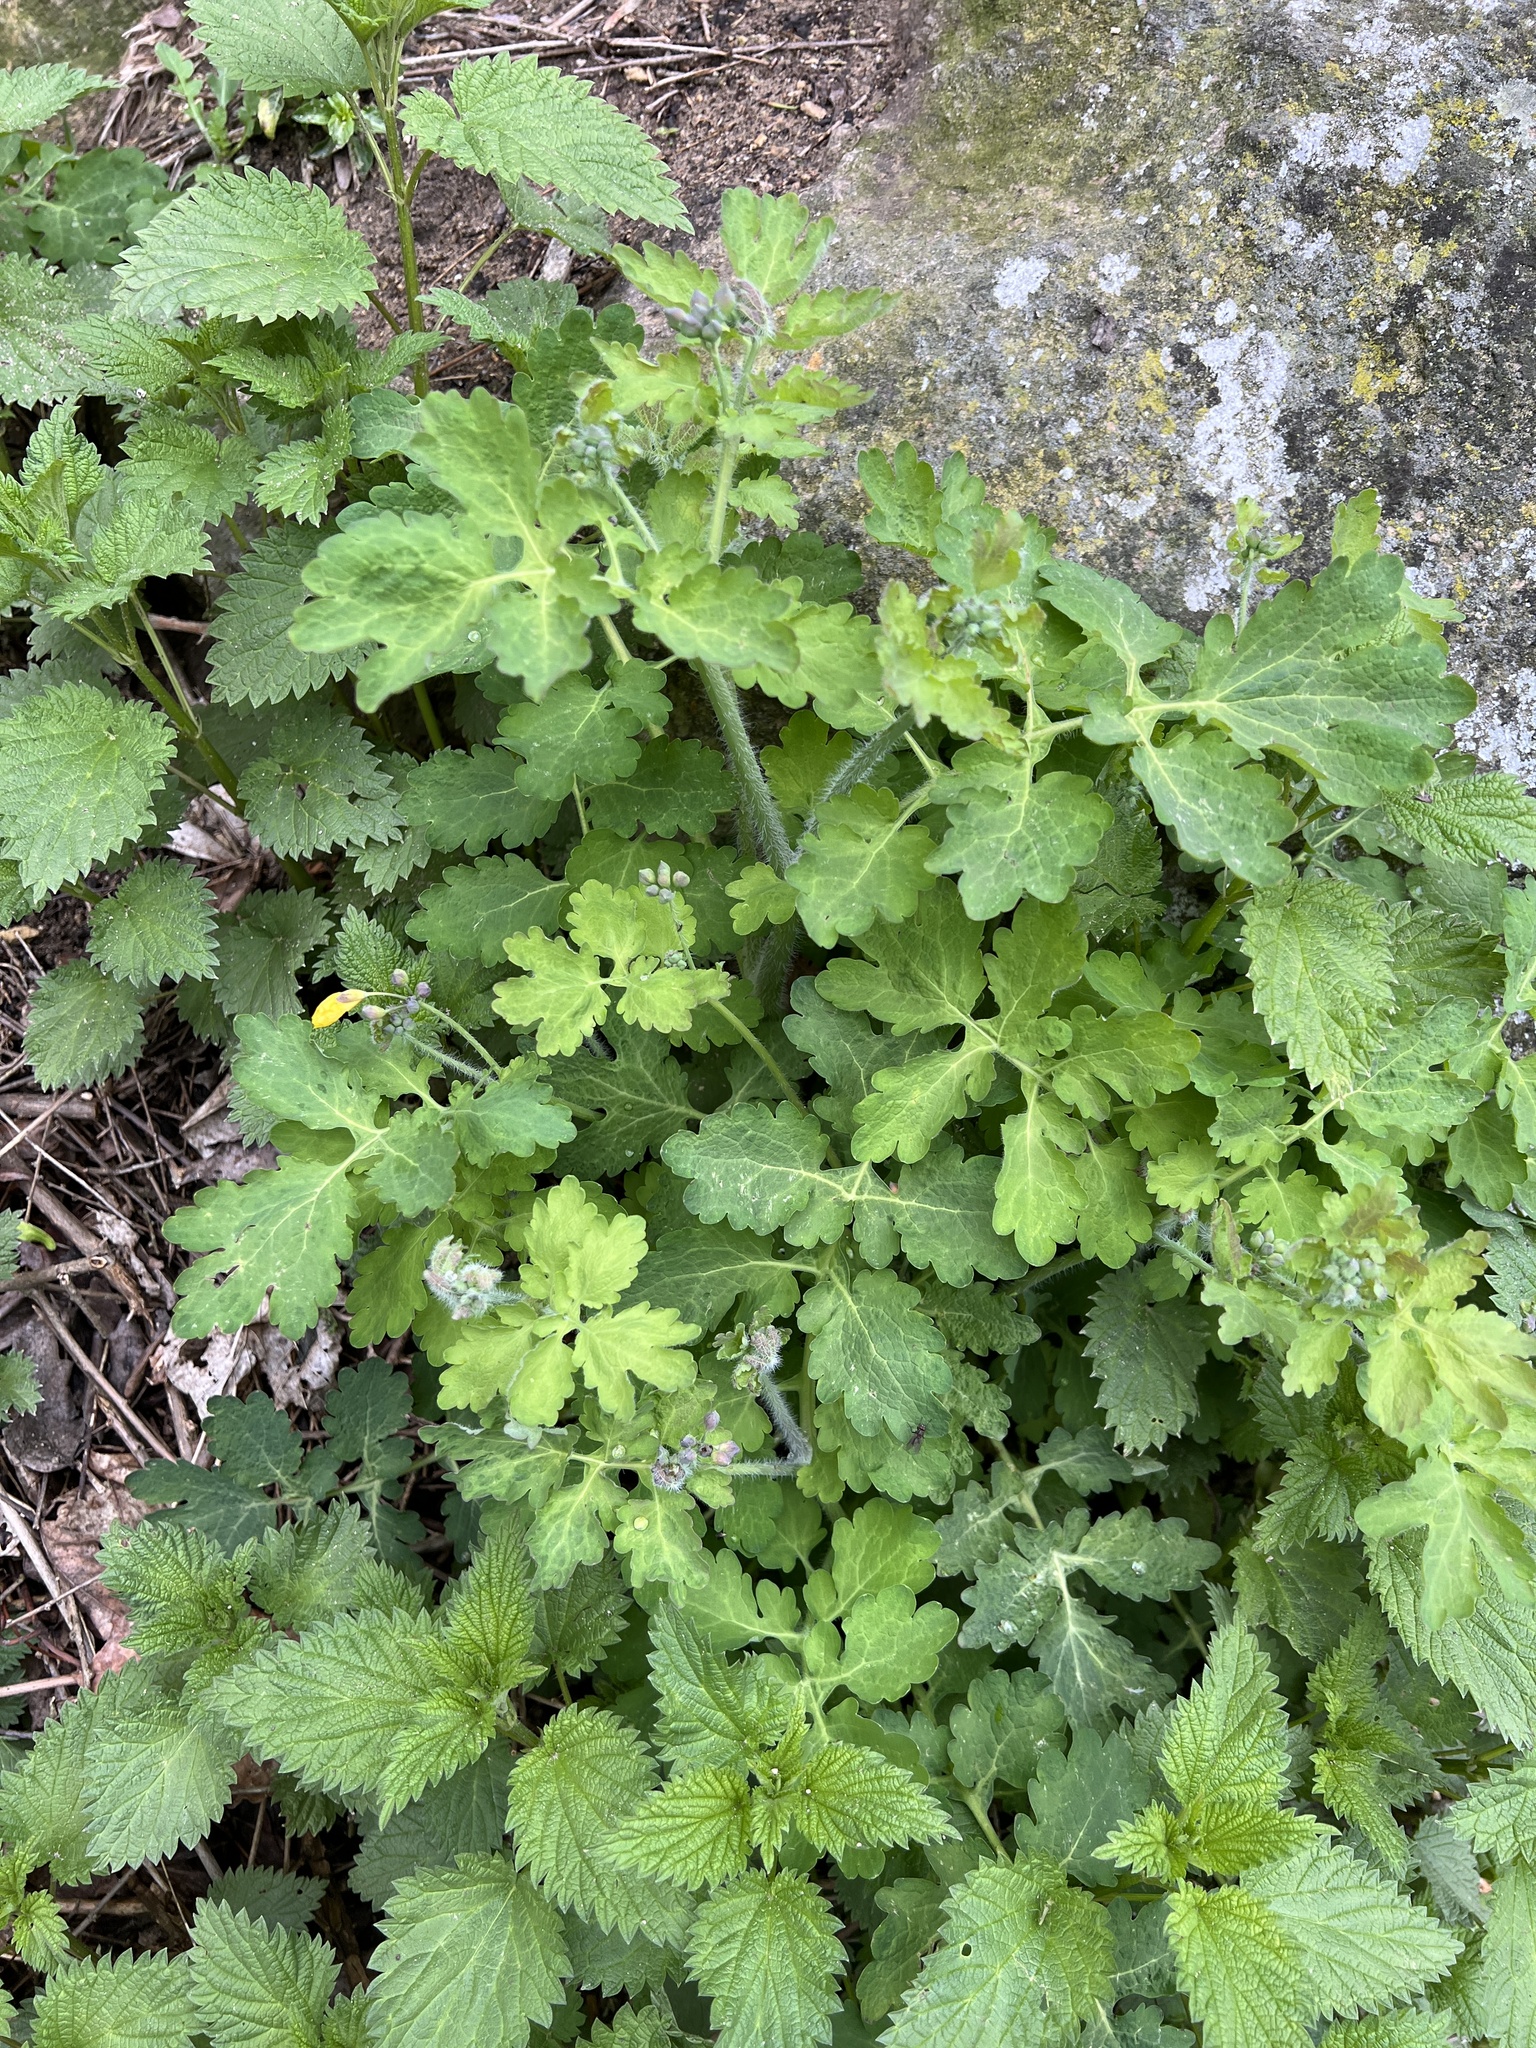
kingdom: Plantae
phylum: Tracheophyta
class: Magnoliopsida
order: Ranunculales
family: Papaveraceae
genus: Chelidonium
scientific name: Chelidonium majus
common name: Greater celandine
